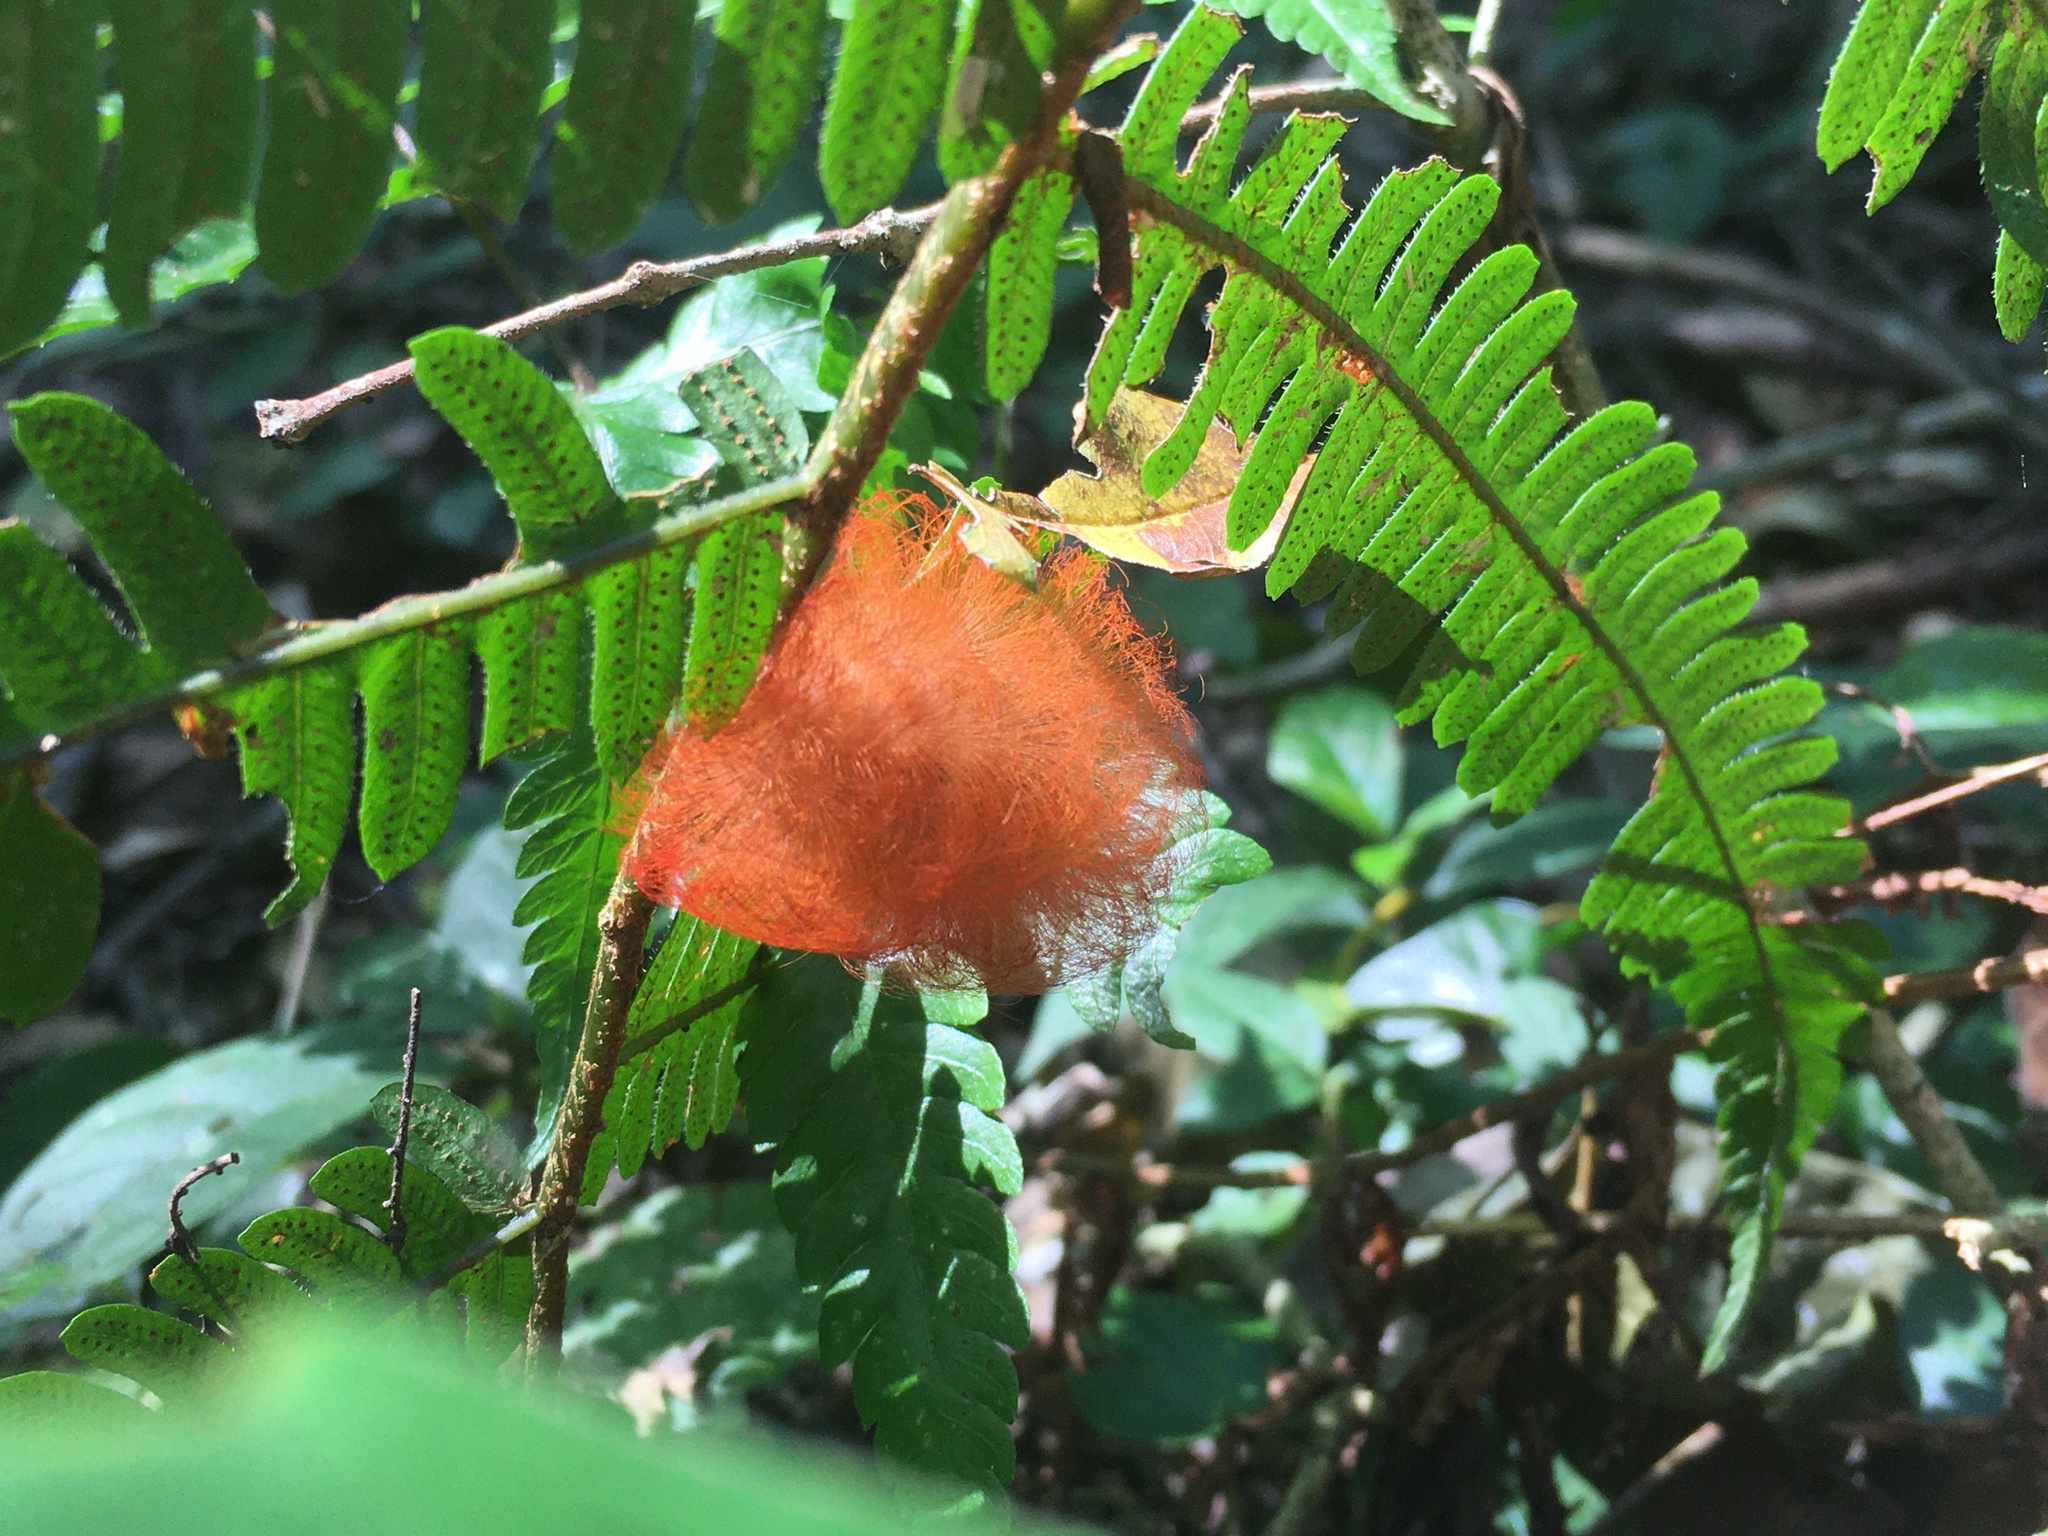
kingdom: Animalia
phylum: Arthropoda
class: Insecta
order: Lepidoptera
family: Megalopygidae
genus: Megalopyge
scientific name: Megalopyge albicollis
